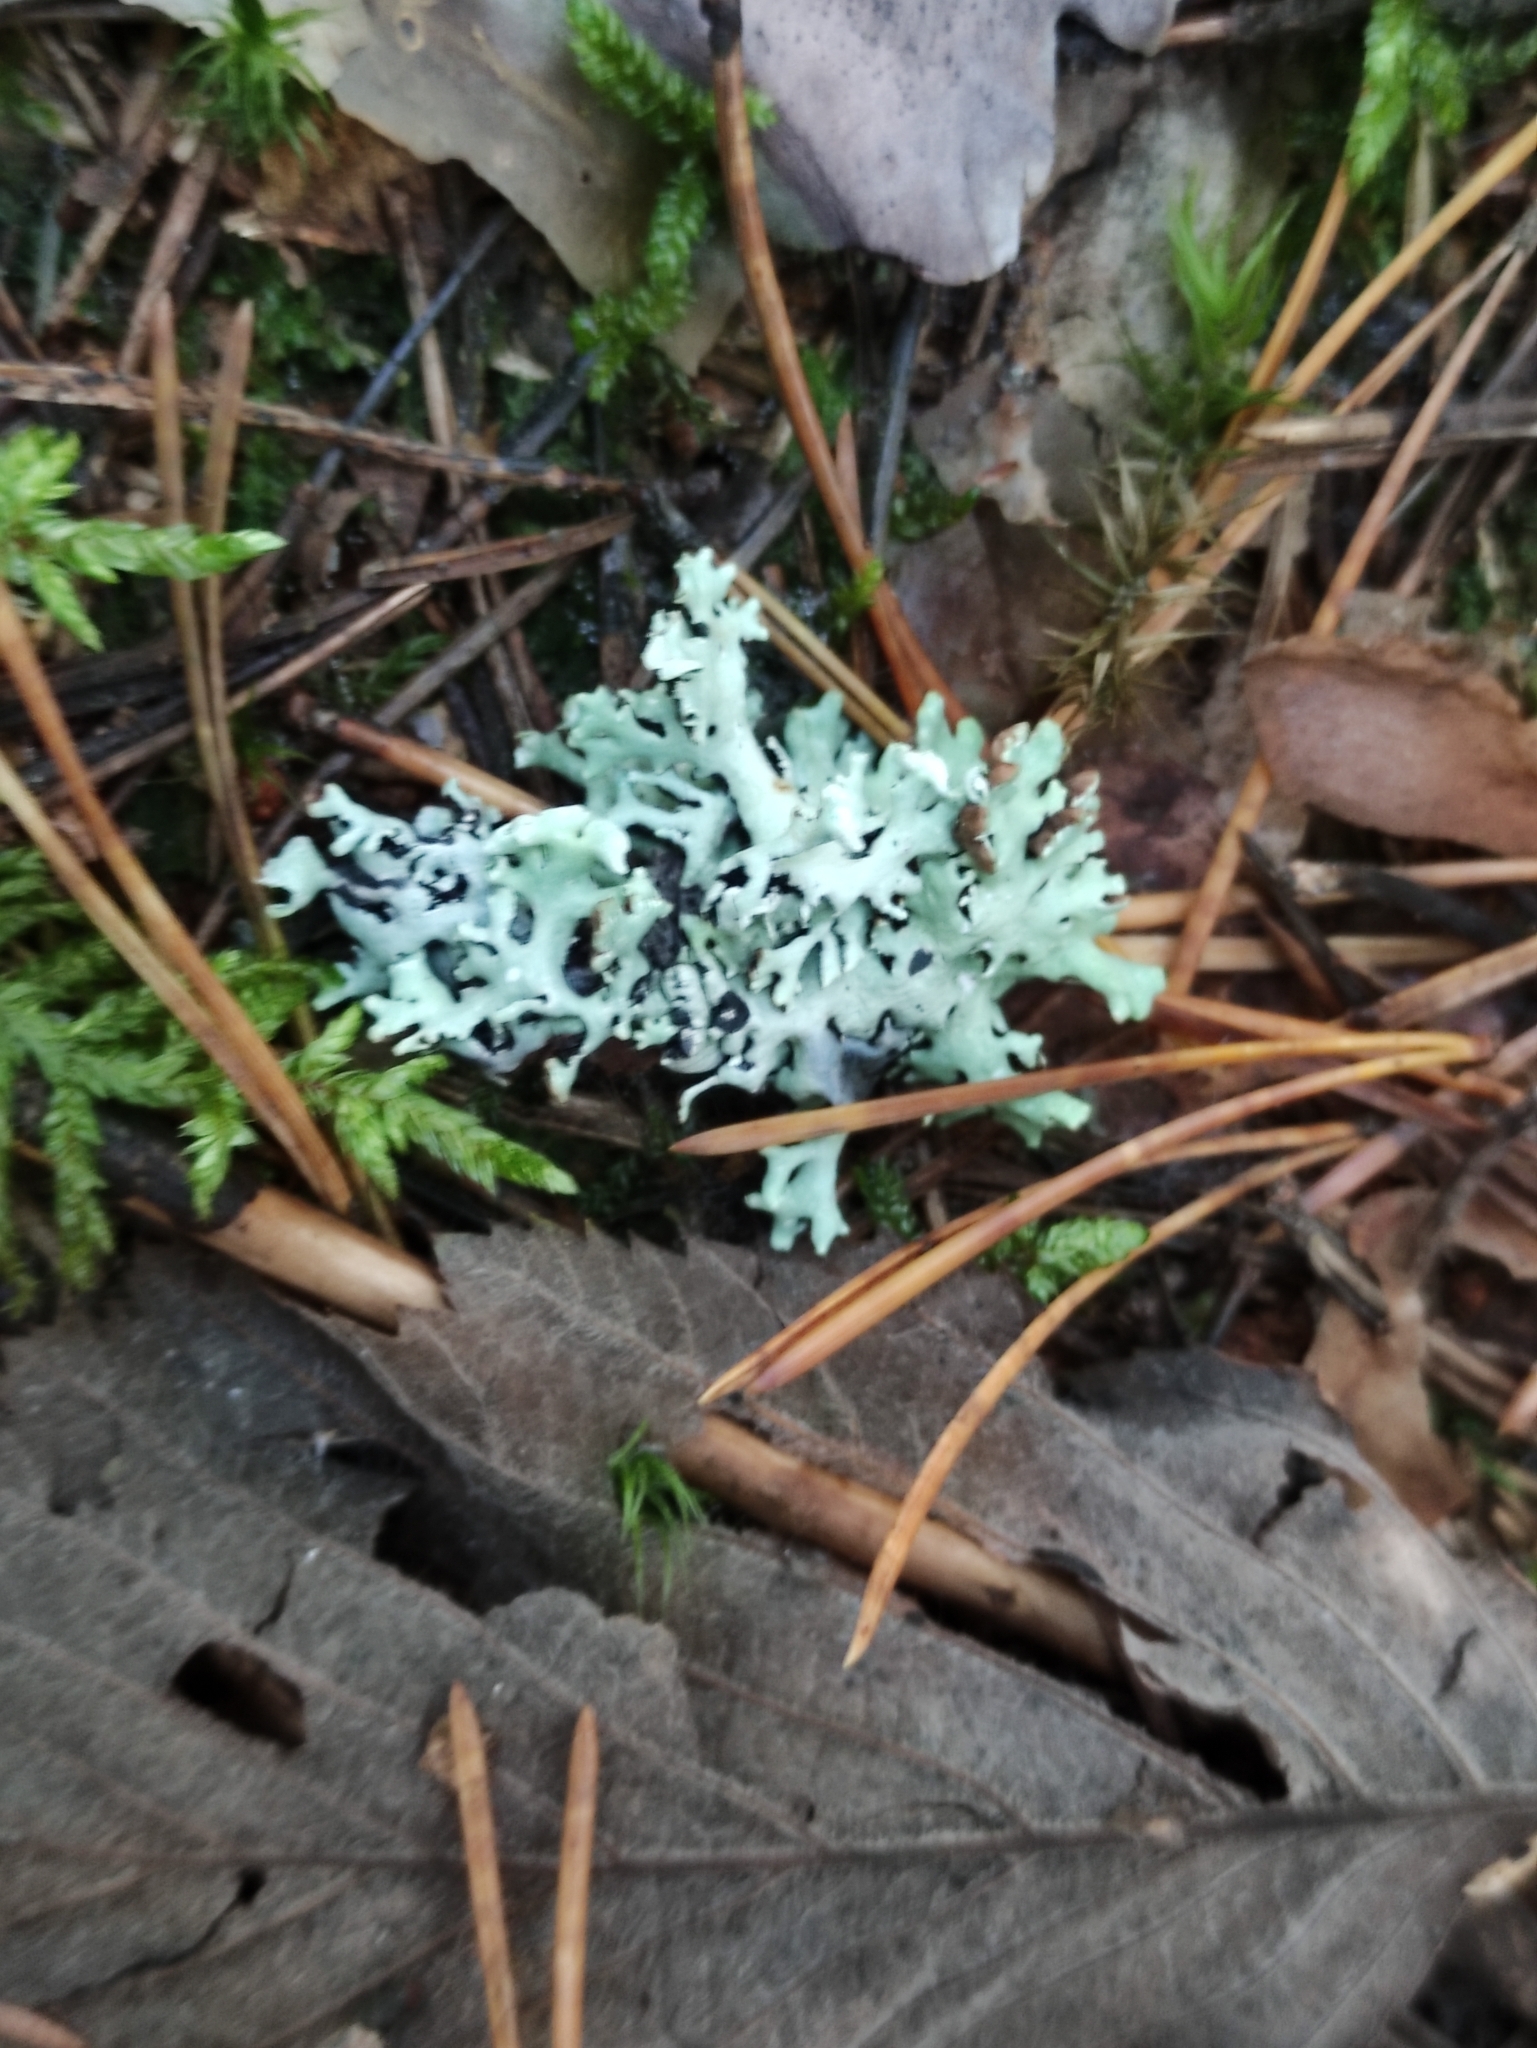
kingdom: Fungi
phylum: Ascomycota
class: Lecanoromycetes
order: Lecanorales
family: Parmeliaceae
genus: Hypogymnia
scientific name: Hypogymnia physodes
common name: Dark crottle
